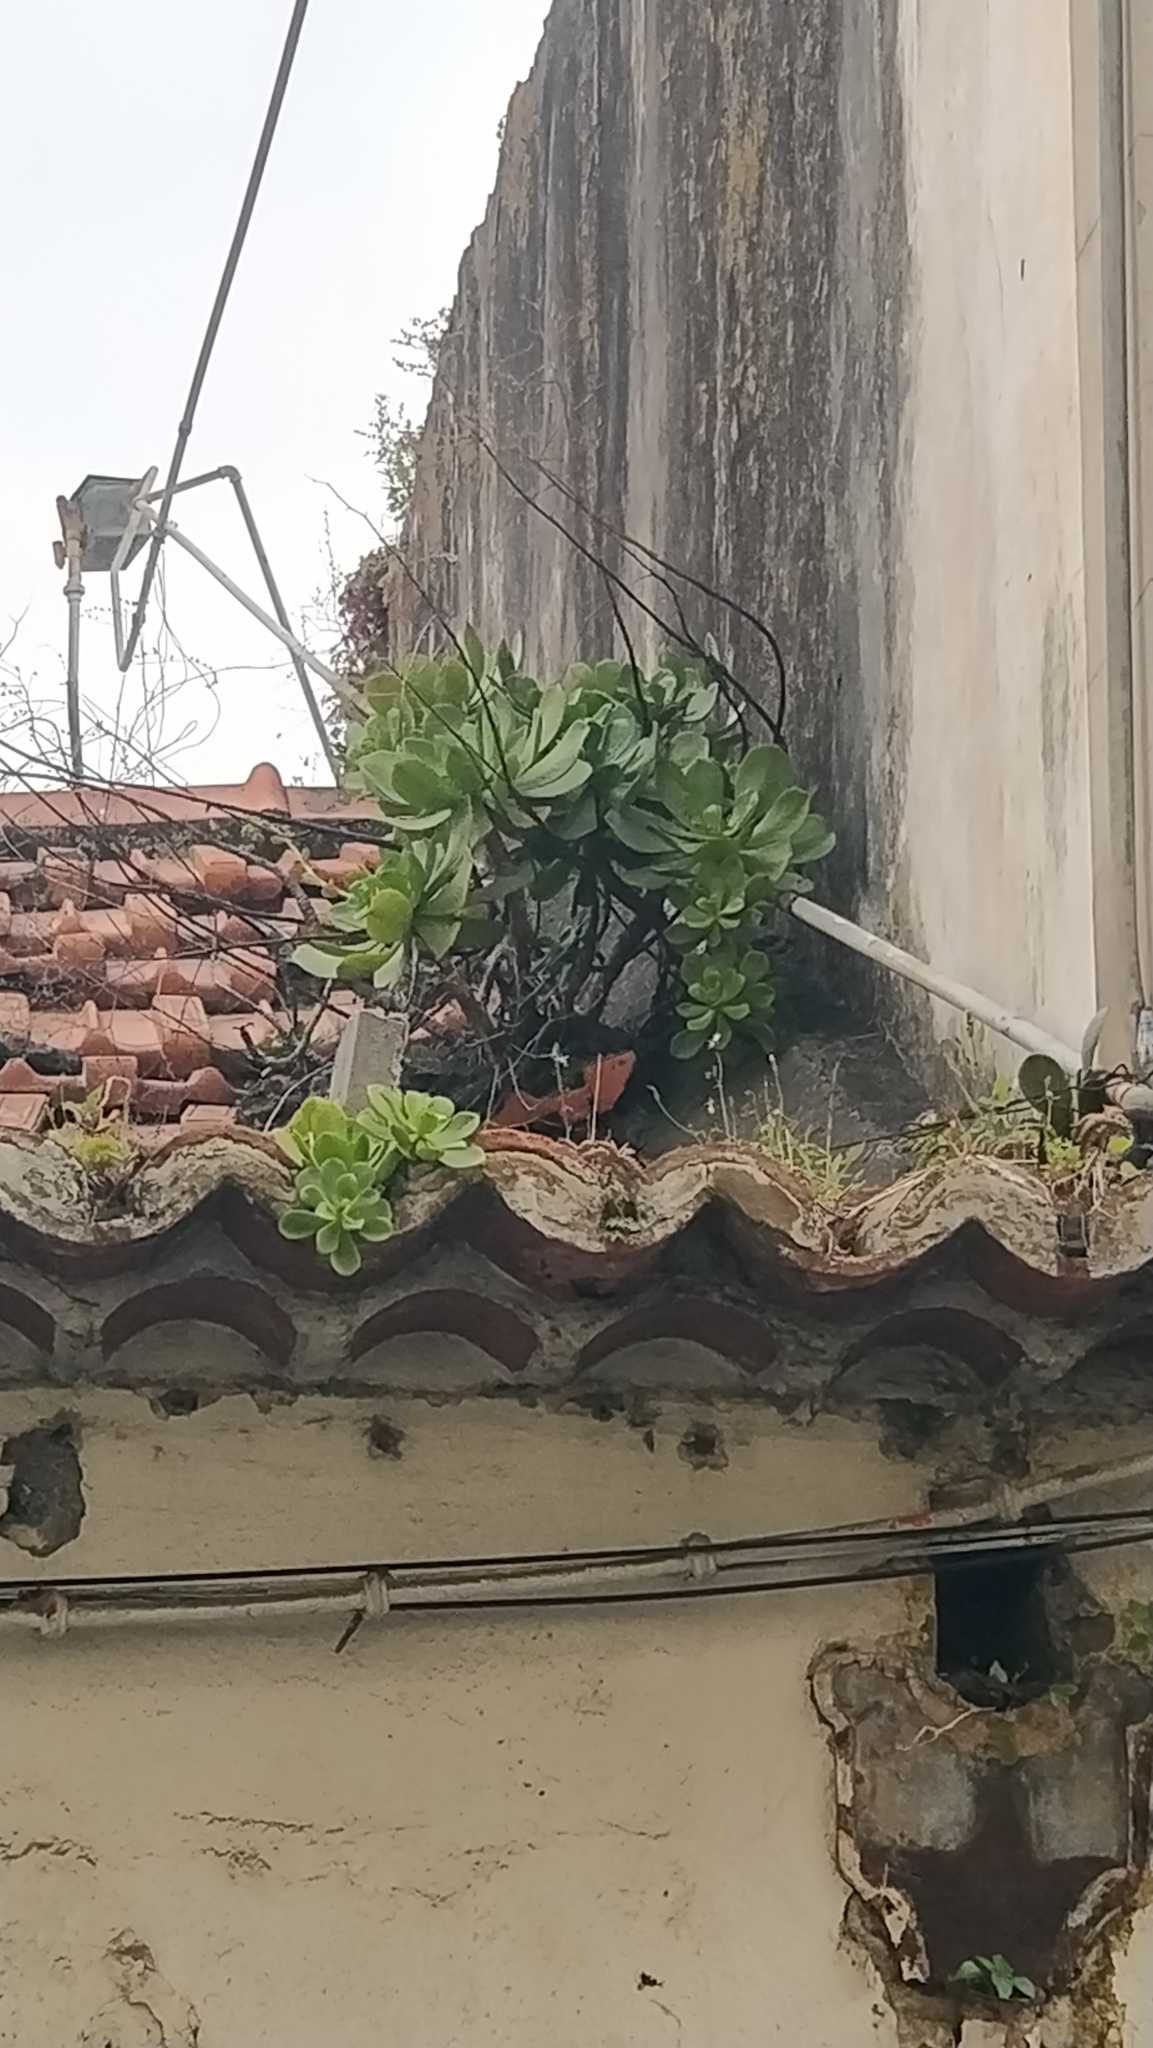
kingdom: Plantae
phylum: Tracheophyta
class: Magnoliopsida
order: Saxifragales
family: Crassulaceae
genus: Aeonium
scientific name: Aeonium glutinosum
